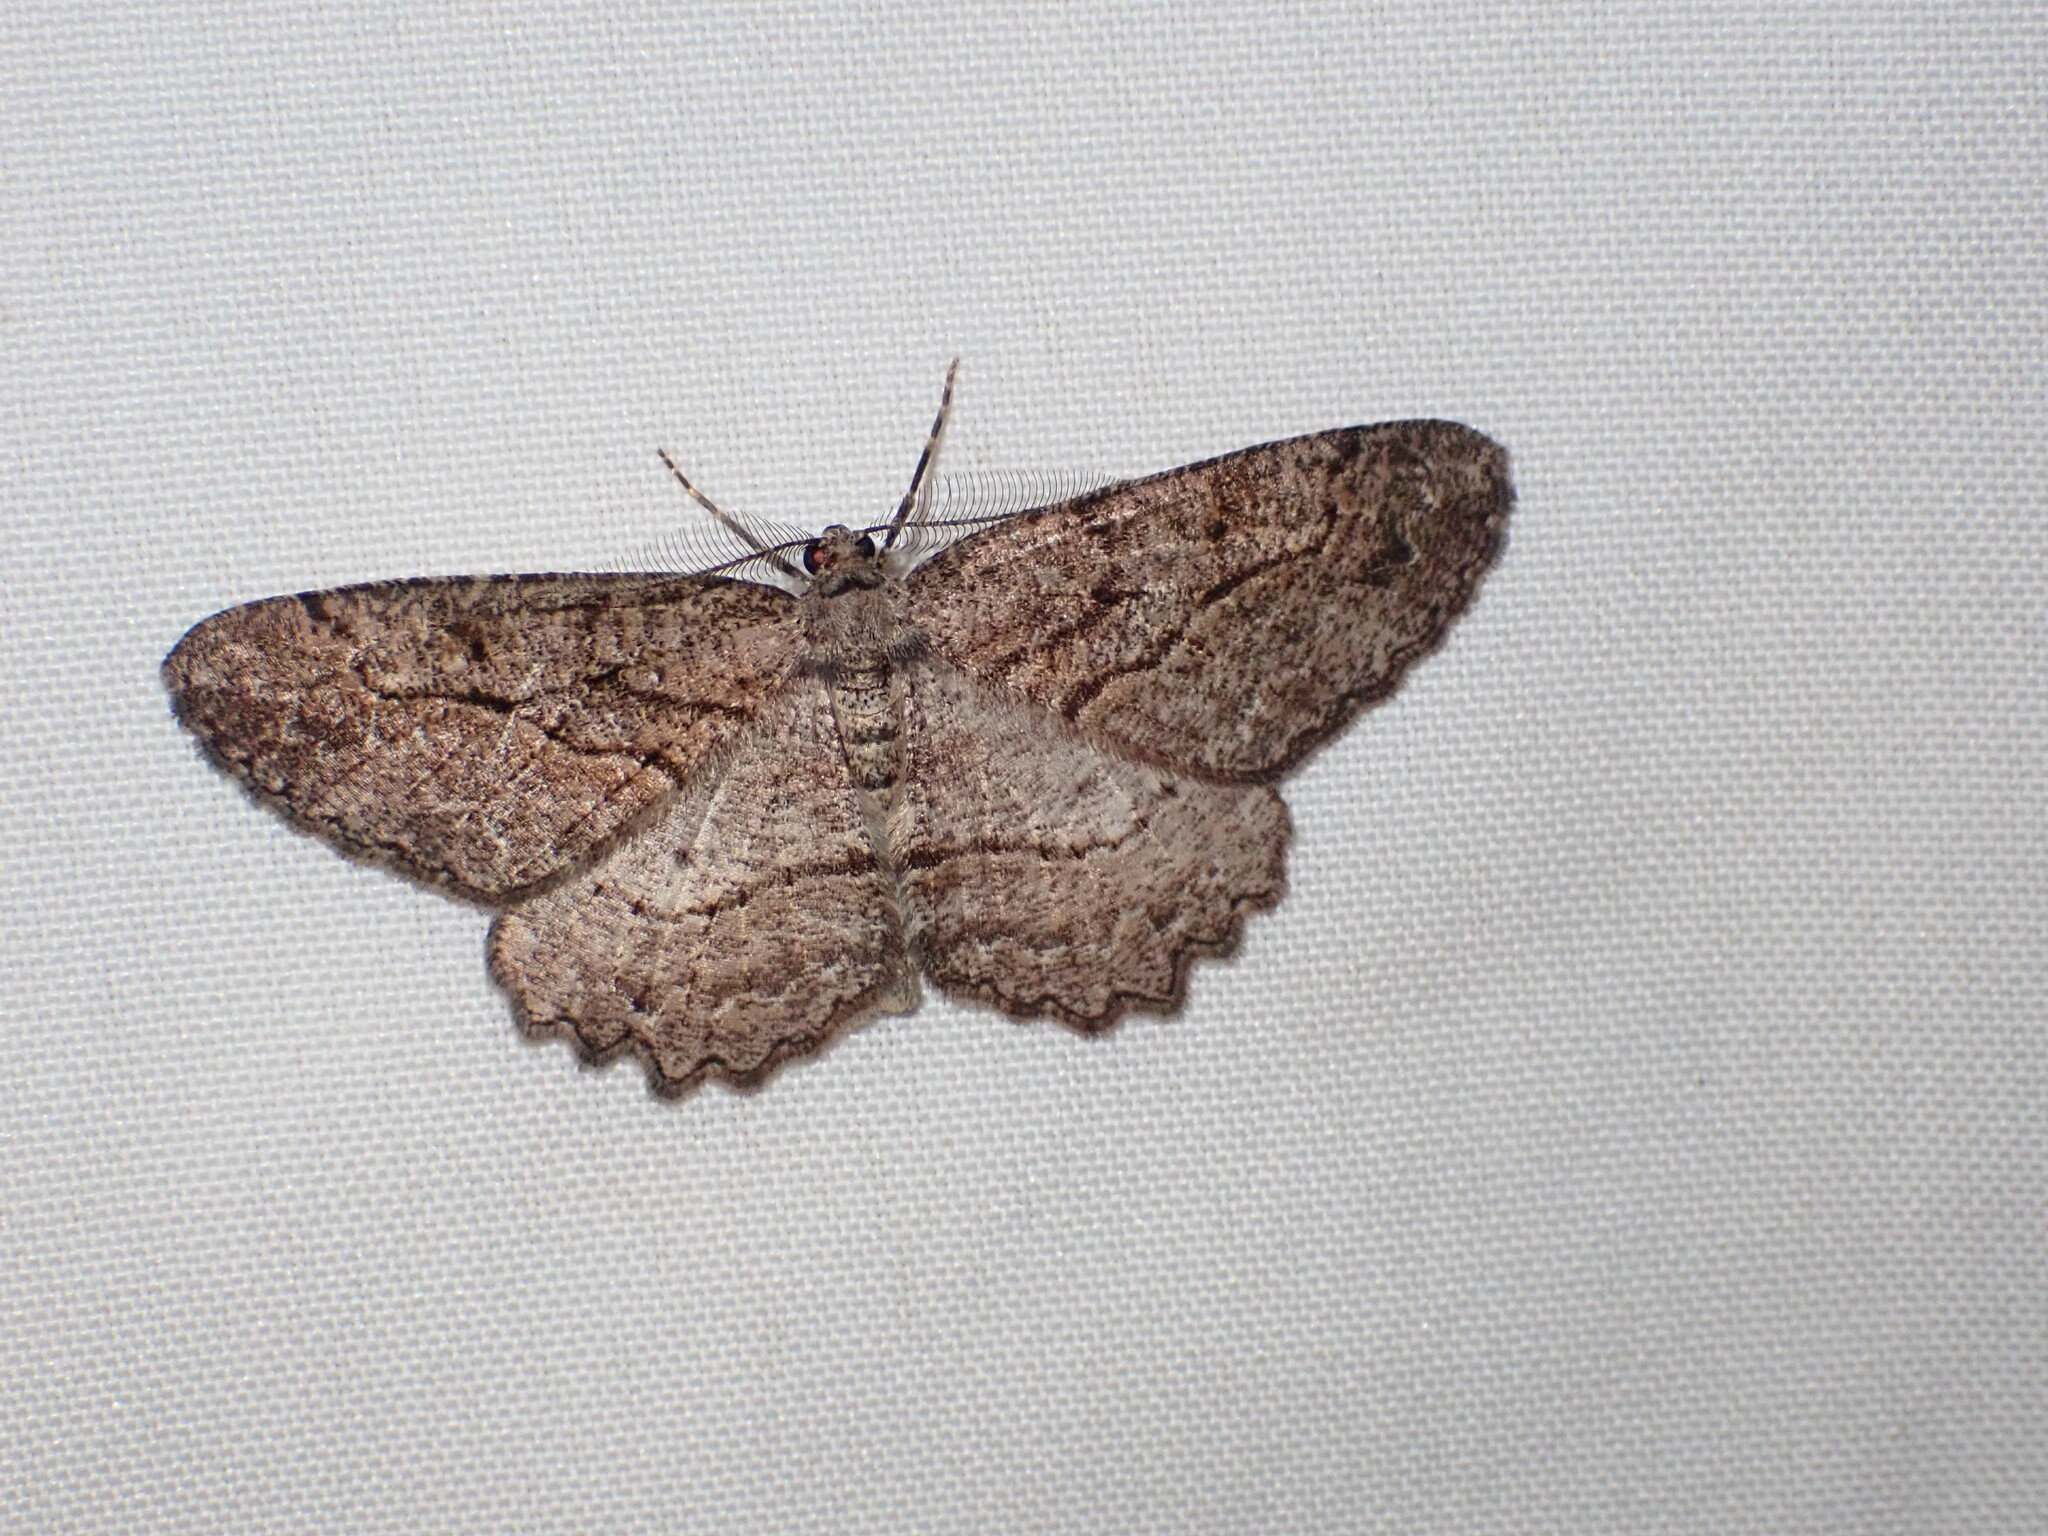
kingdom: Animalia
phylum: Arthropoda
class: Insecta
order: Lepidoptera
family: Geometridae
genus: Neoalcis
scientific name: Neoalcis californiaria
